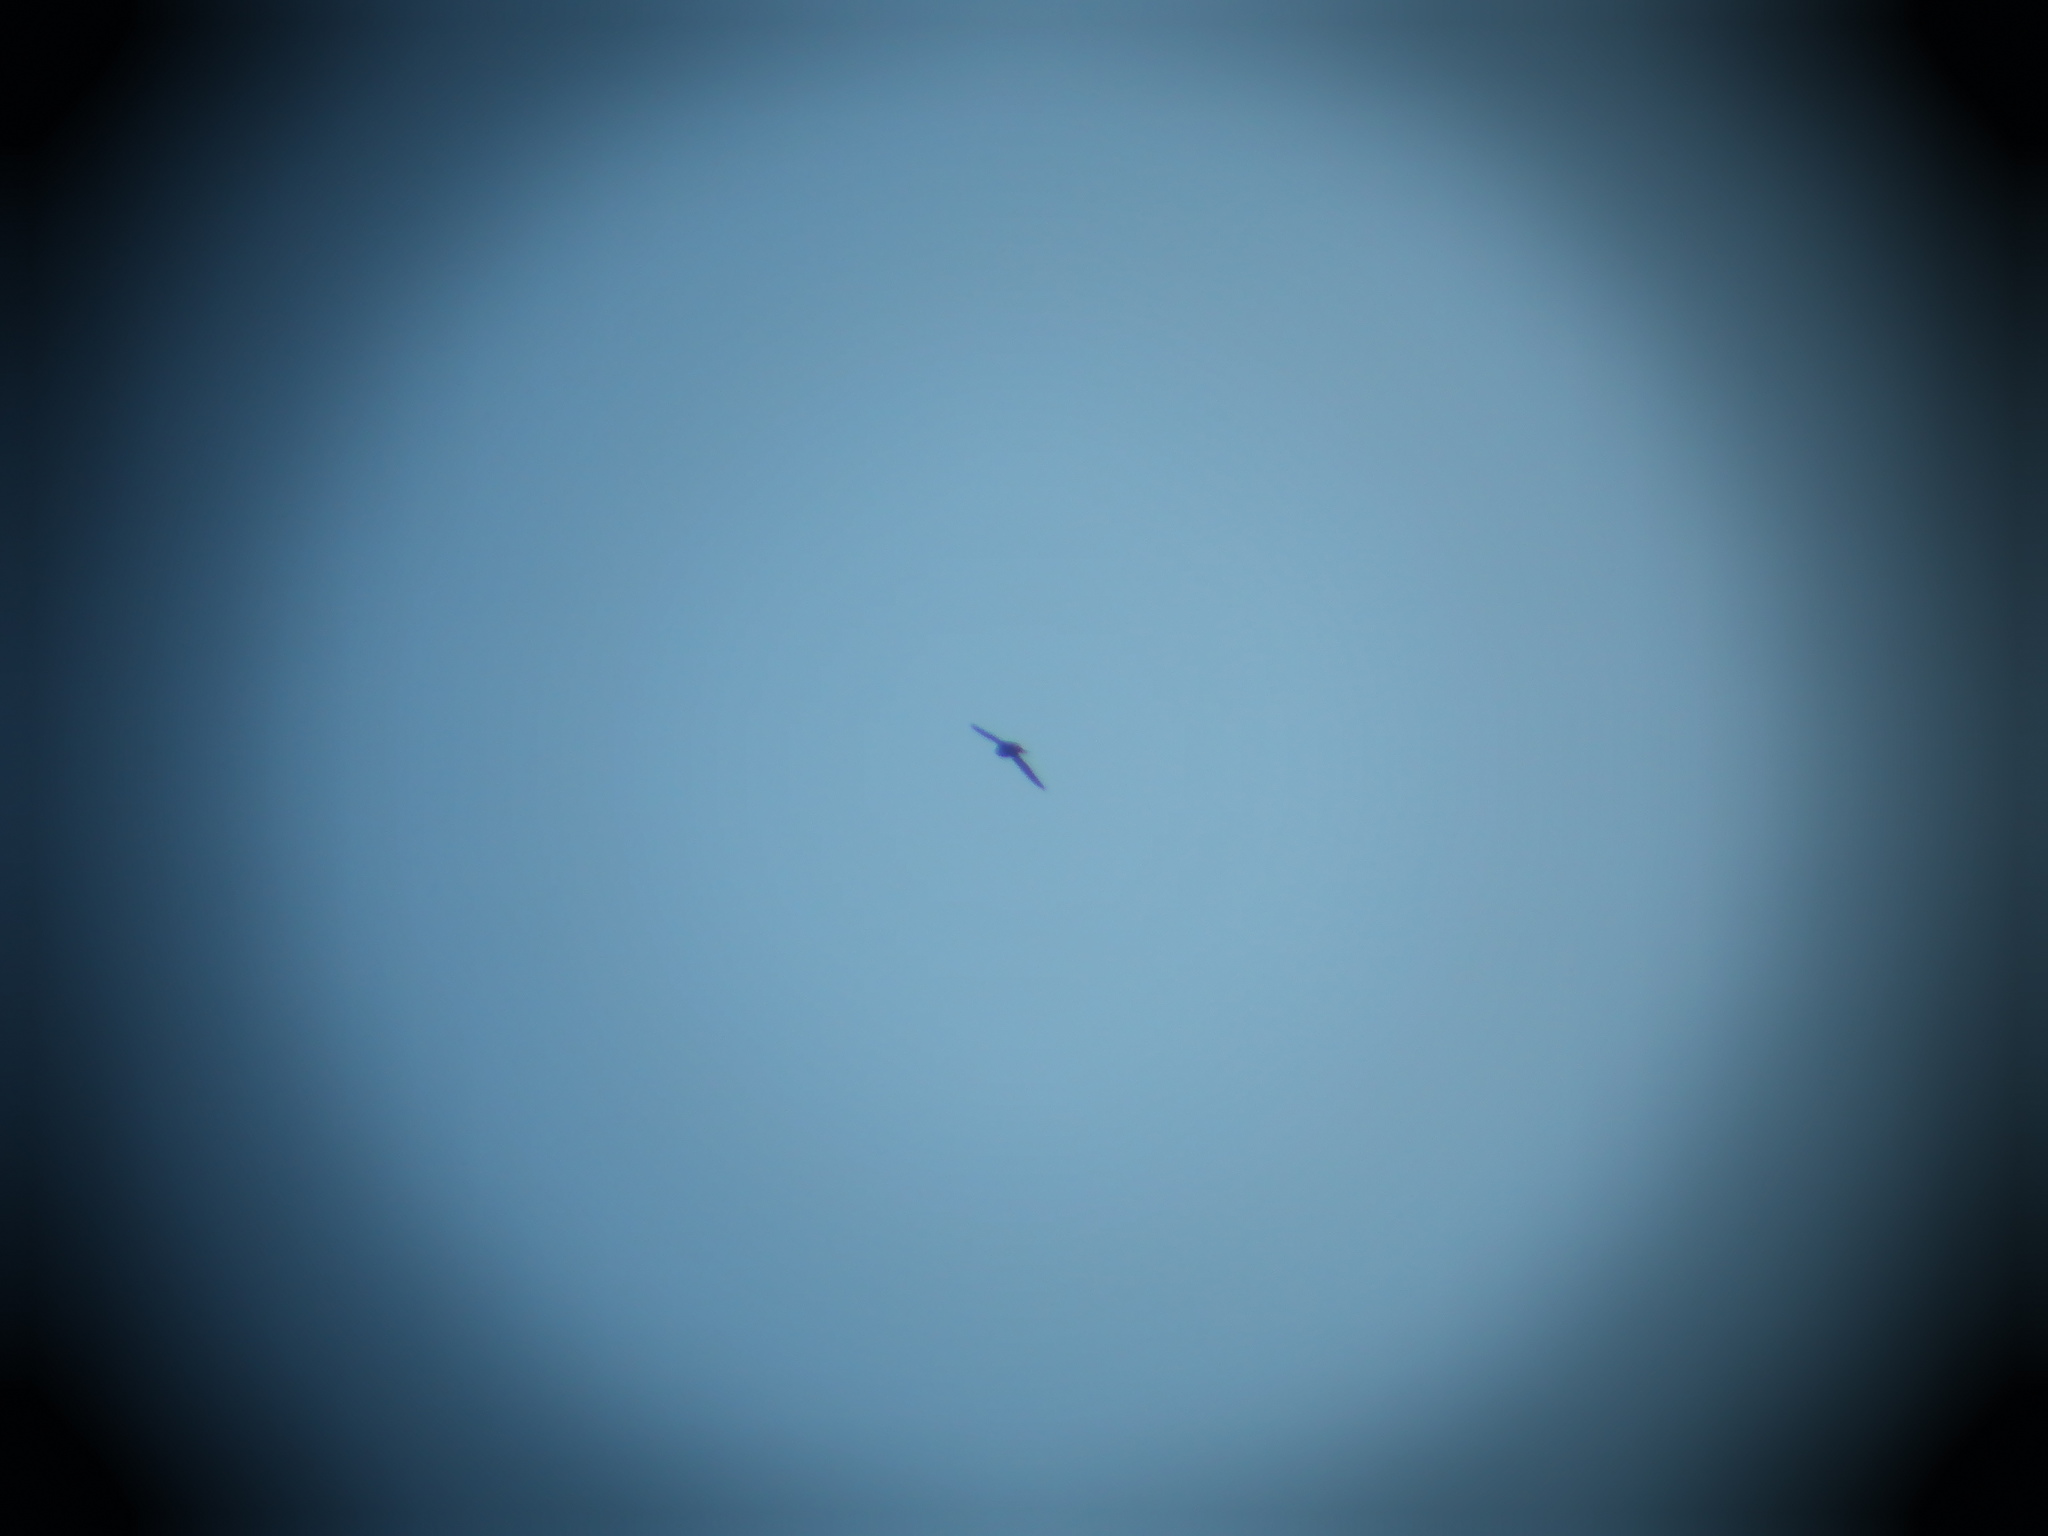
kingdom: Animalia
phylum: Chordata
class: Aves
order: Passeriformes
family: Hirundinidae
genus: Progne
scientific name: Progne subis
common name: Purple martin
